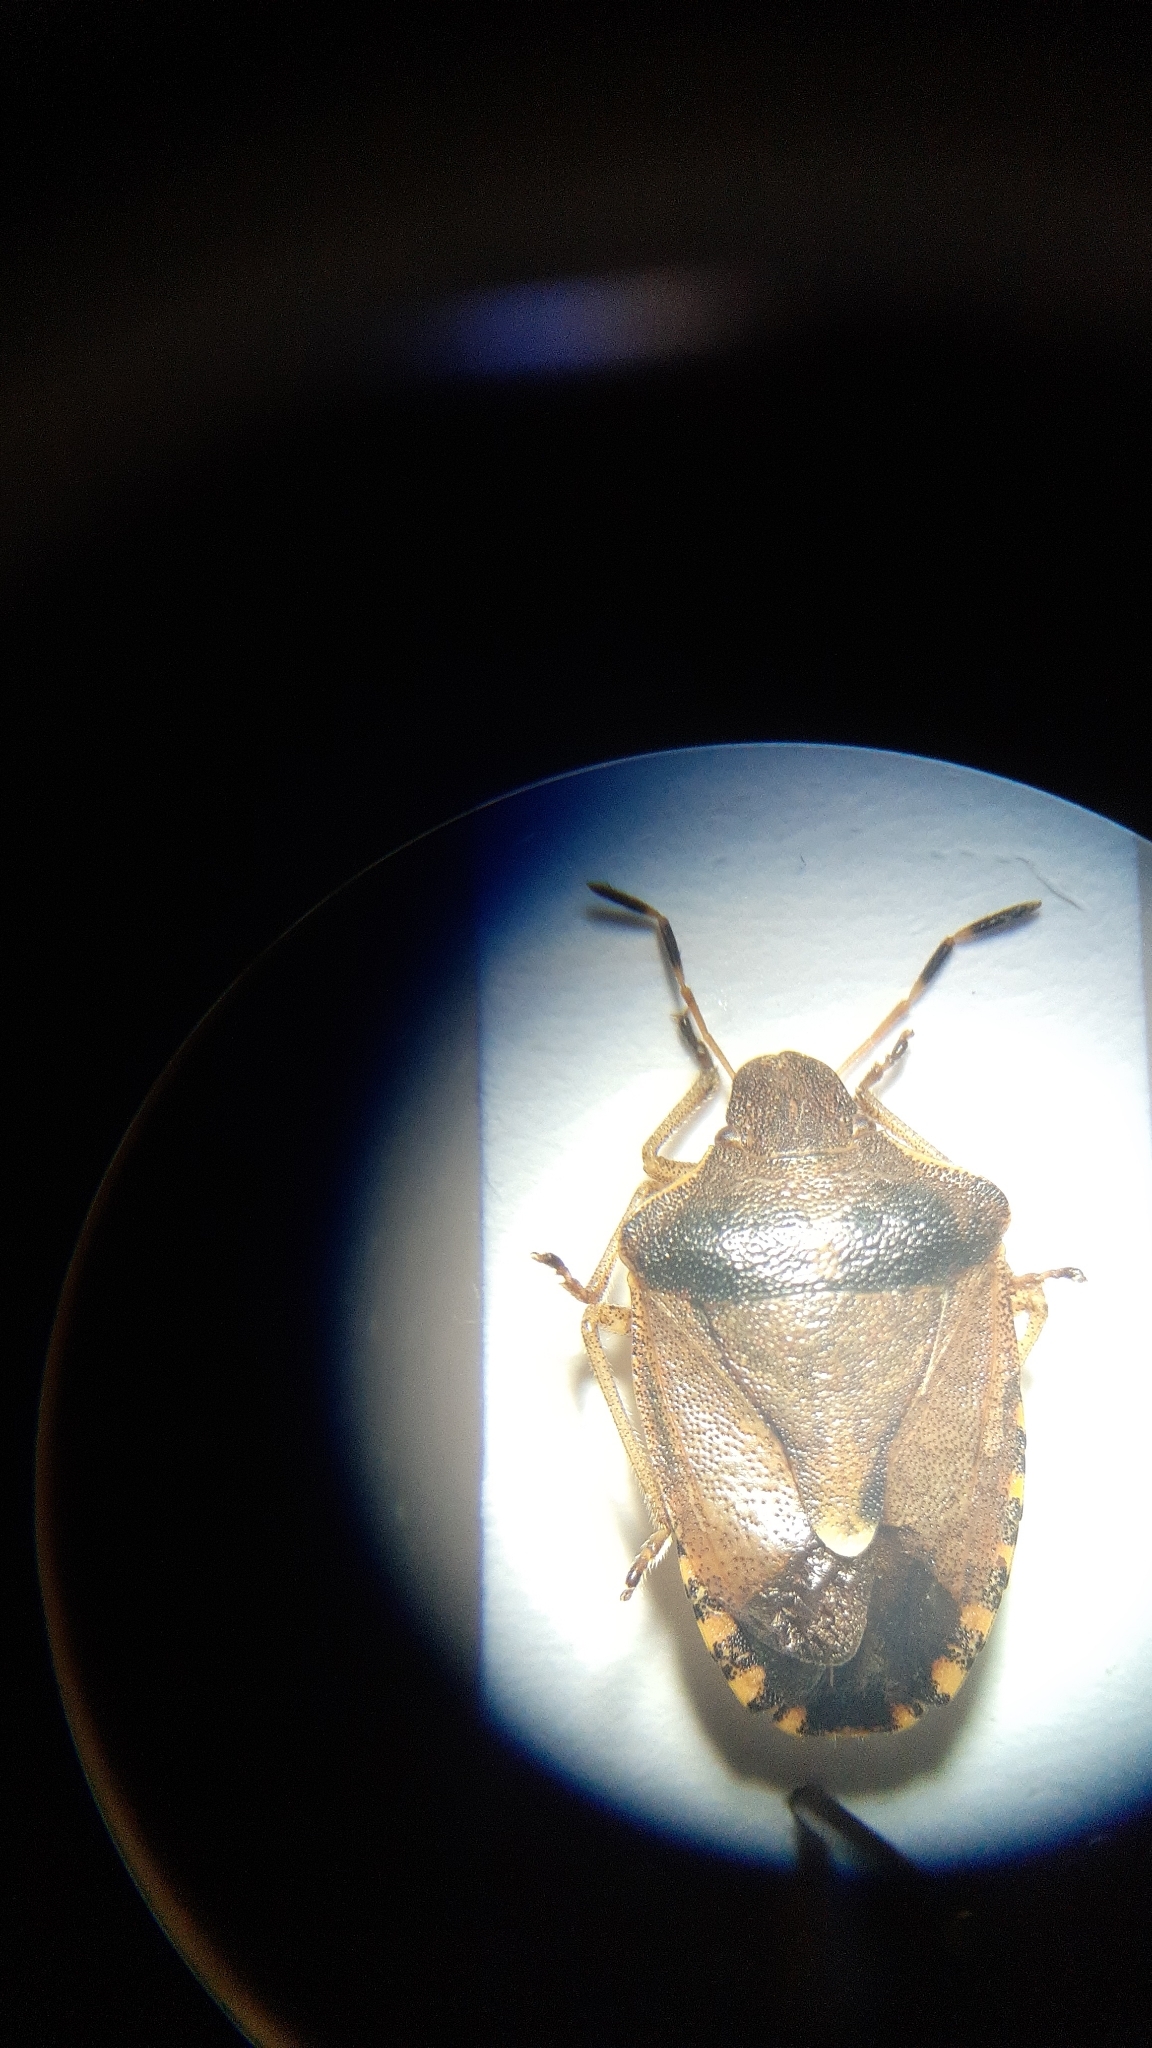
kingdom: Animalia
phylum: Arthropoda
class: Insecta
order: Hemiptera
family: Pentatomidae
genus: Holcostethus
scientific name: Holcostethus strictus
